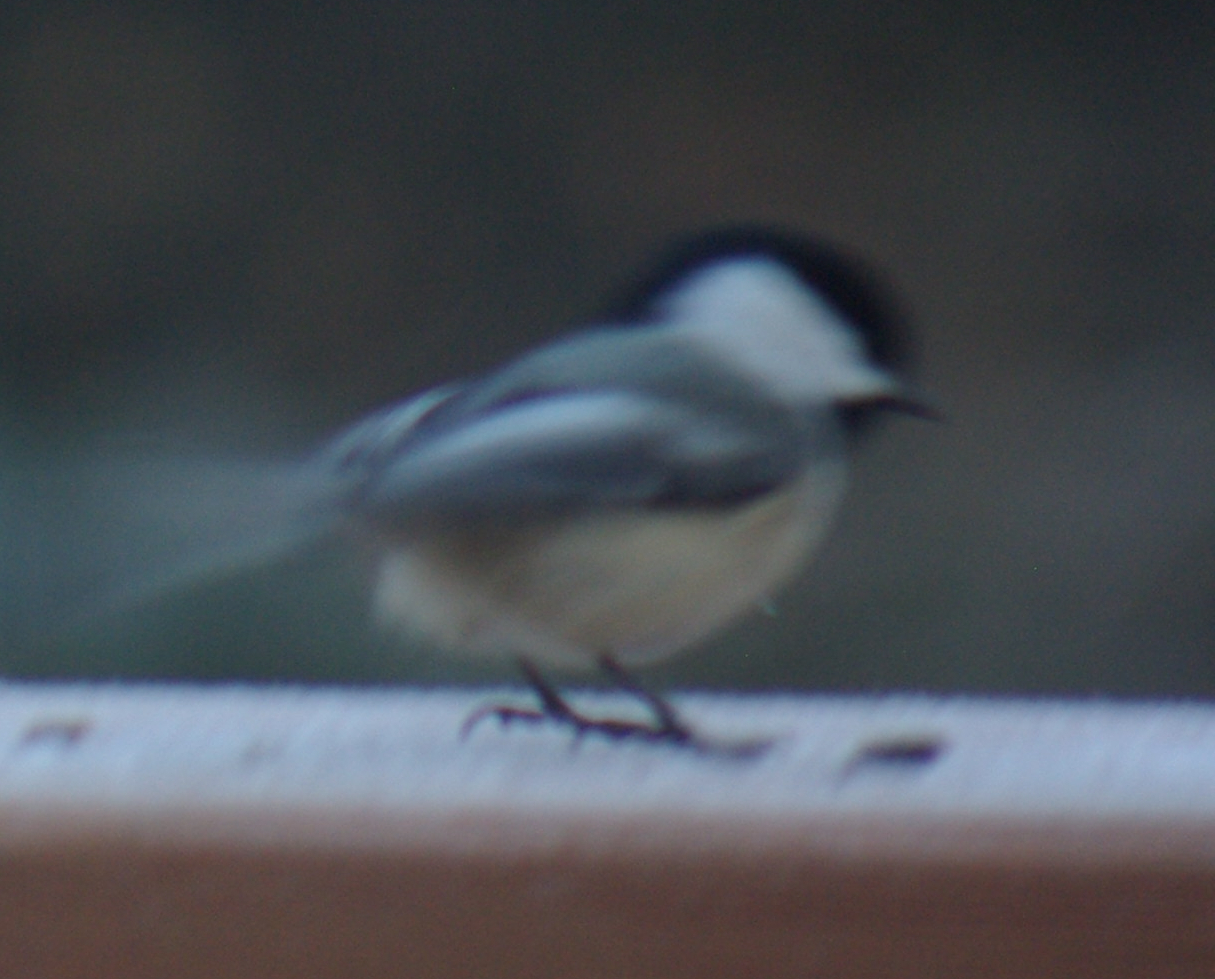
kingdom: Animalia
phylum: Chordata
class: Aves
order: Passeriformes
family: Paridae
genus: Poecile
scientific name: Poecile atricapillus
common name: Black-capped chickadee
